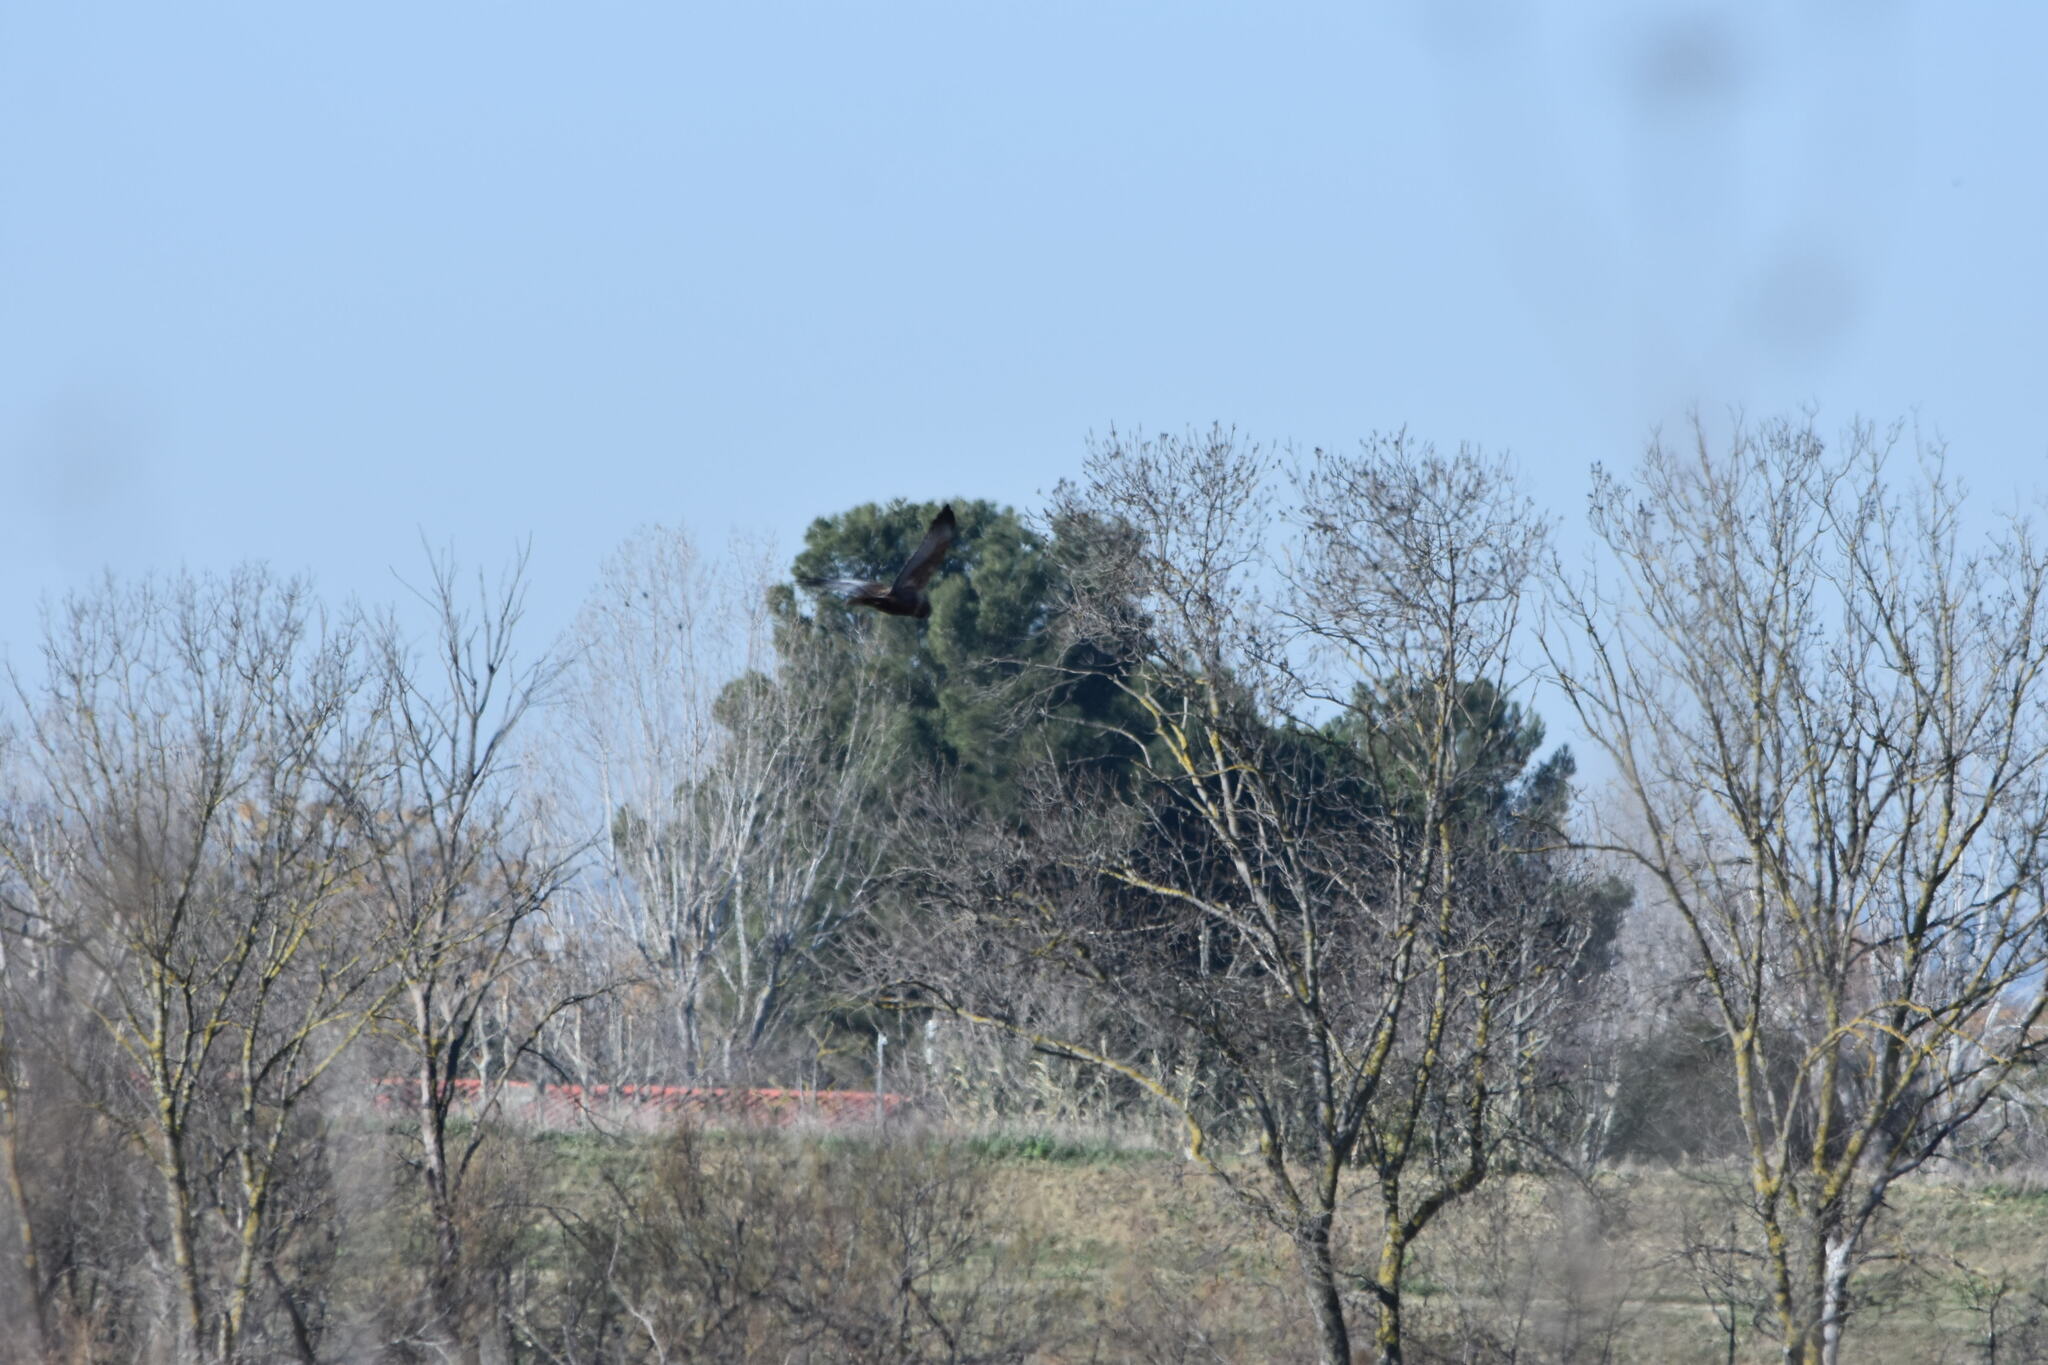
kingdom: Animalia
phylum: Chordata
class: Aves
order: Accipitriformes
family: Accipitridae
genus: Circus
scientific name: Circus aeruginosus
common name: Western marsh harrier
